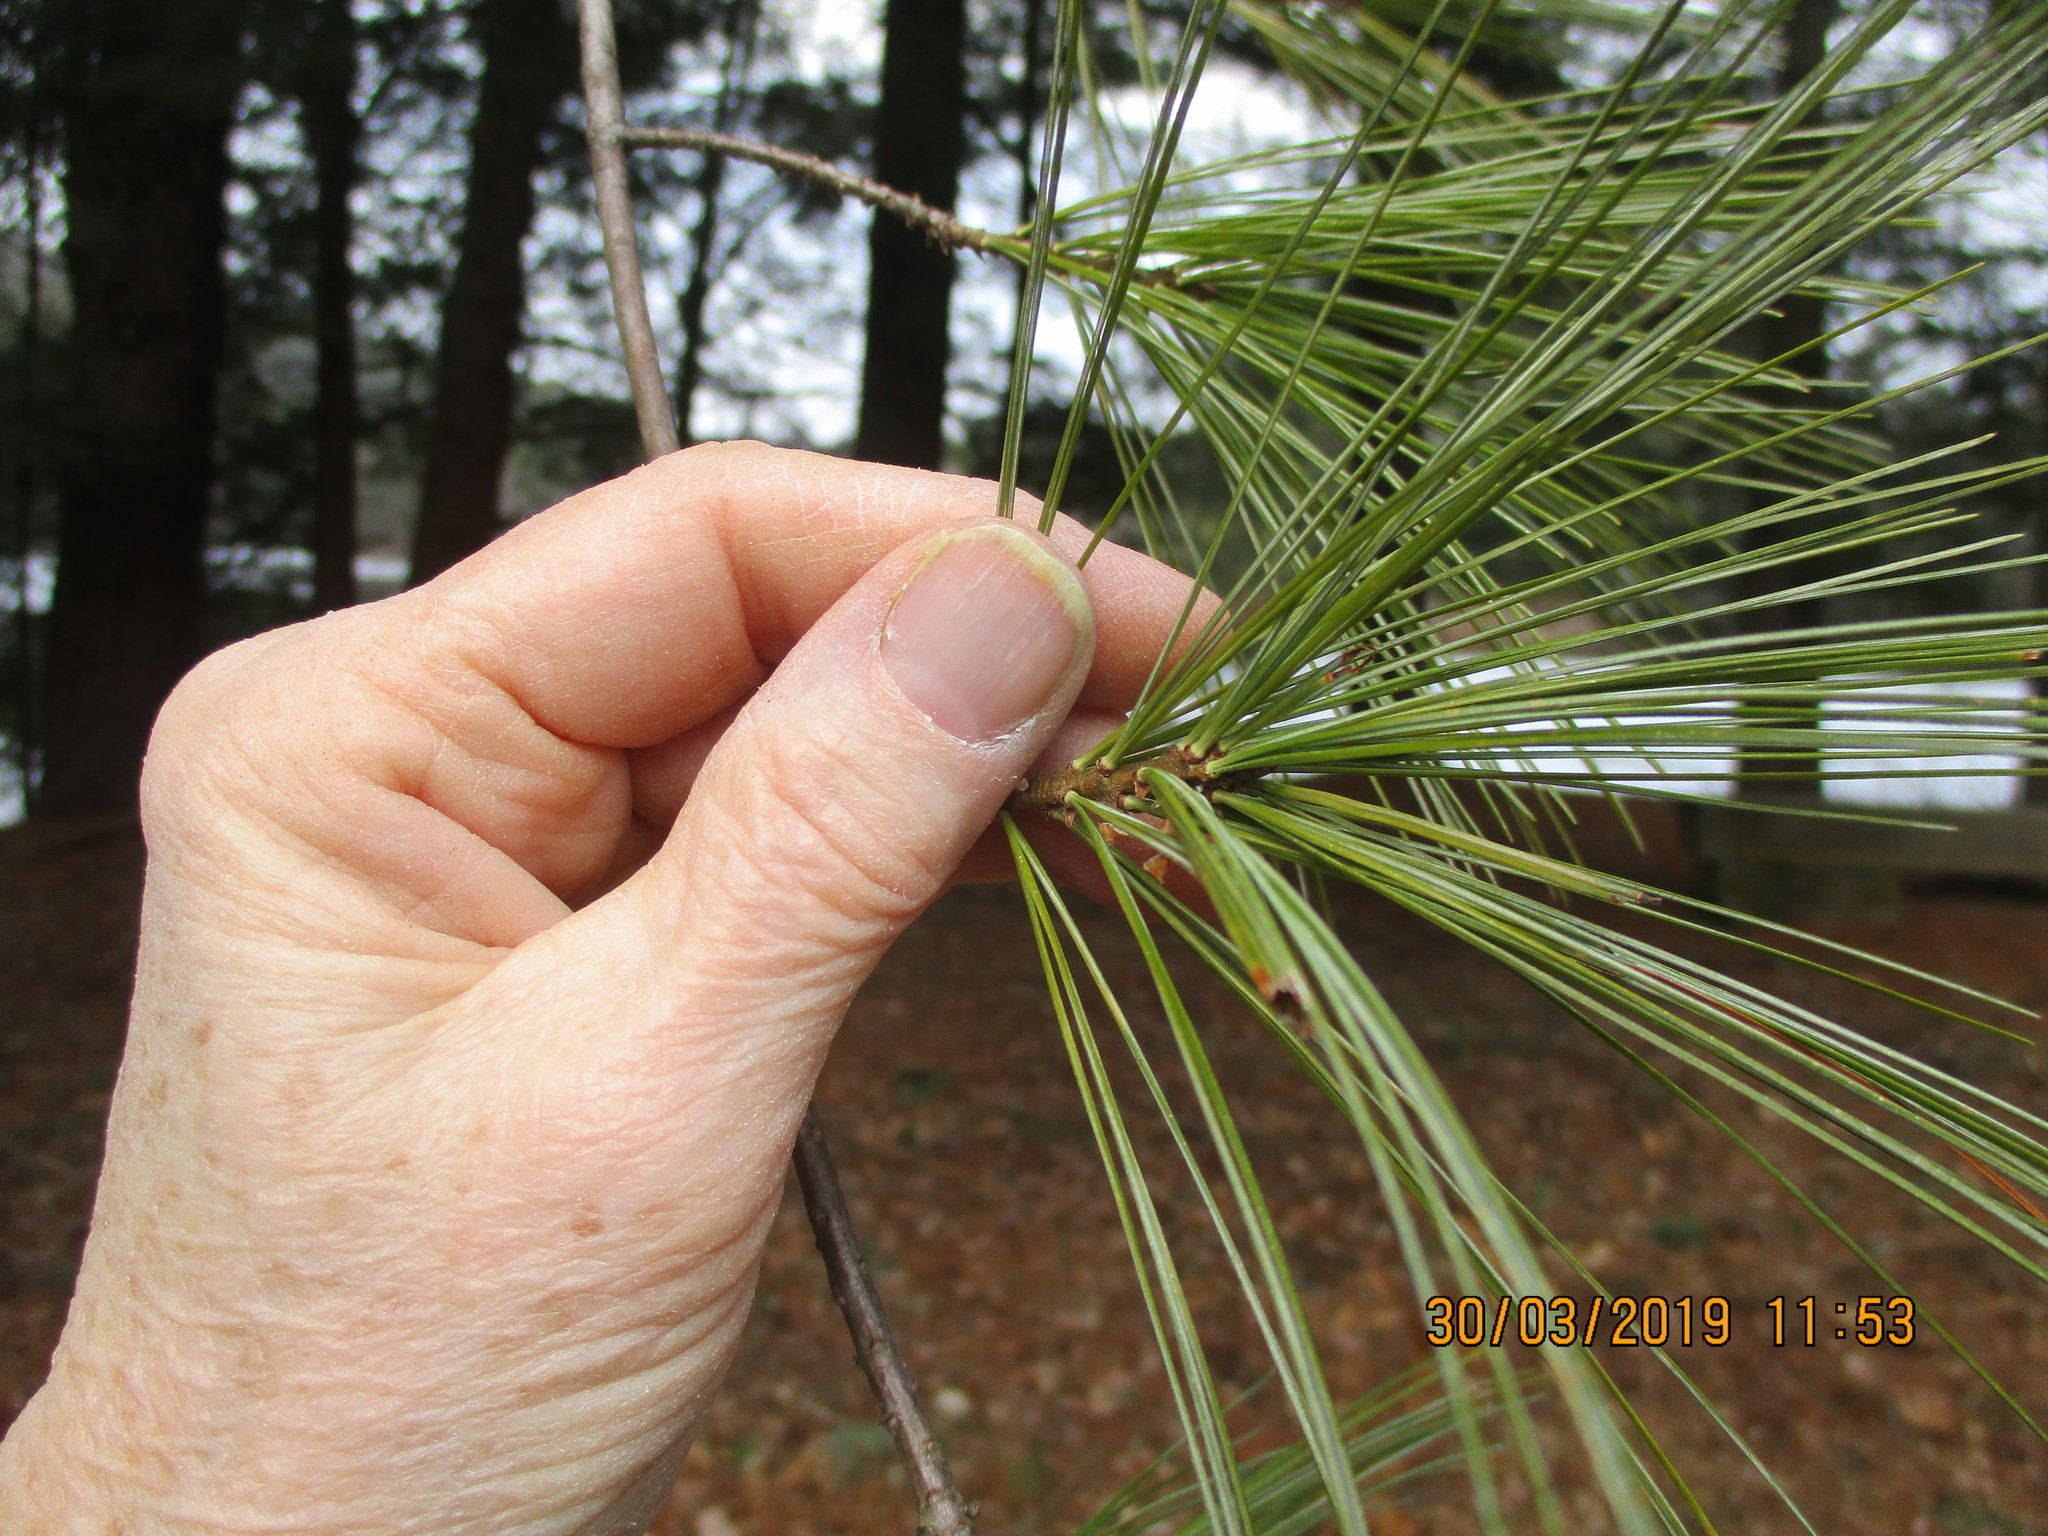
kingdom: Plantae
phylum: Tracheophyta
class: Pinopsida
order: Pinales
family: Pinaceae
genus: Pinus
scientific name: Pinus strobus
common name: Weymouth pine
